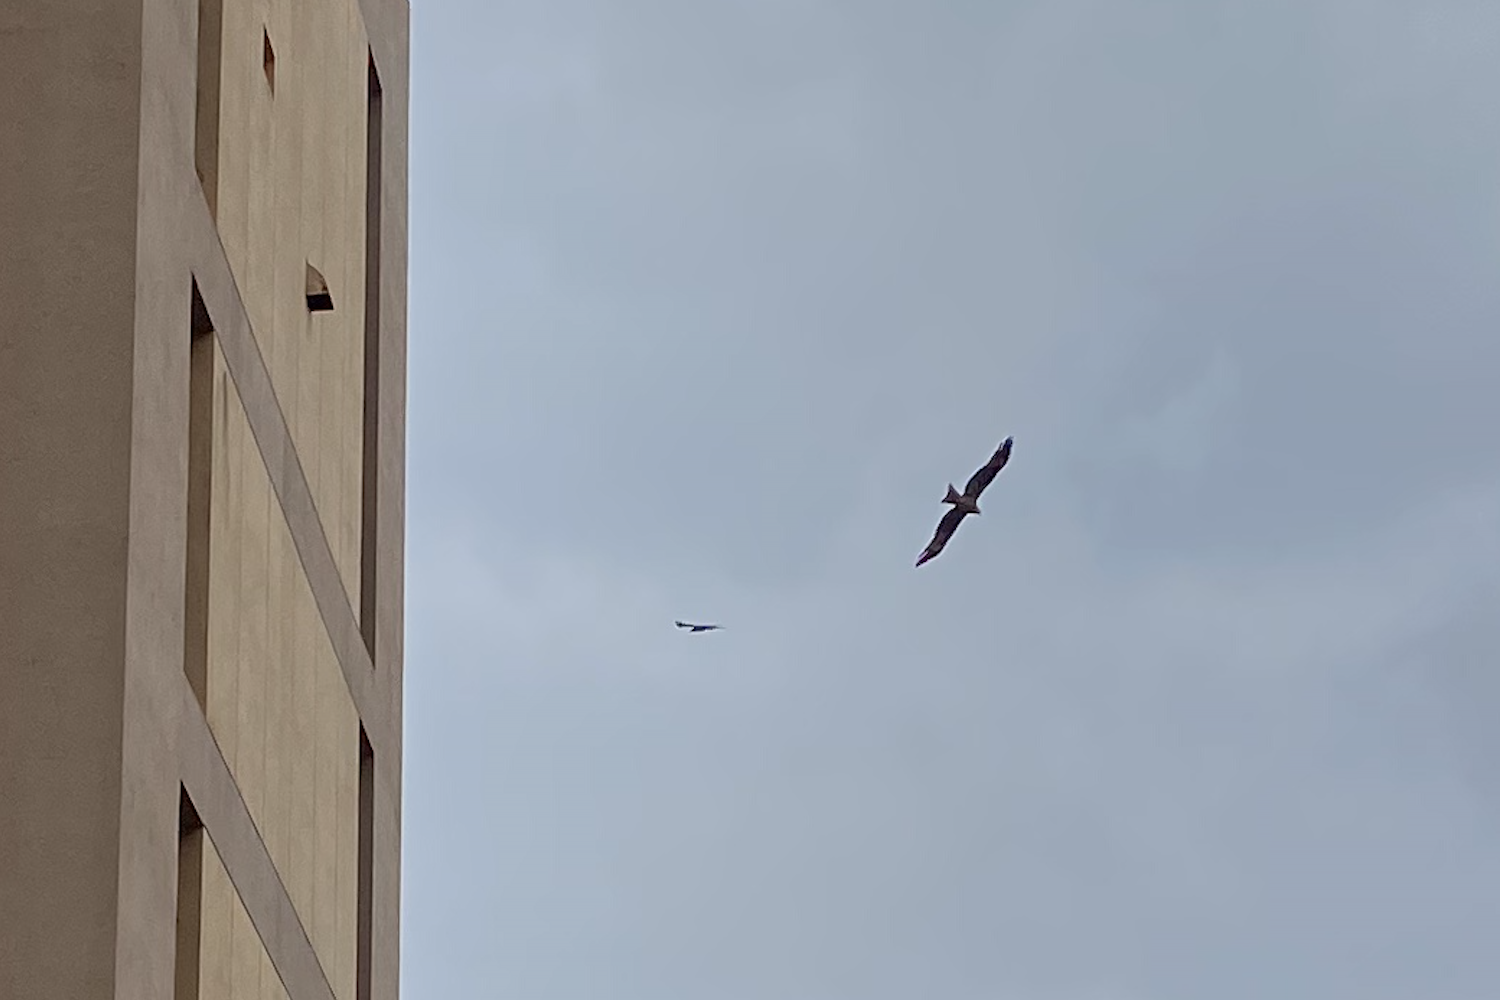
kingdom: Animalia
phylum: Chordata
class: Aves
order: Accipitriformes
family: Accipitridae
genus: Milvus
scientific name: Milvus migrans
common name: Black kite
